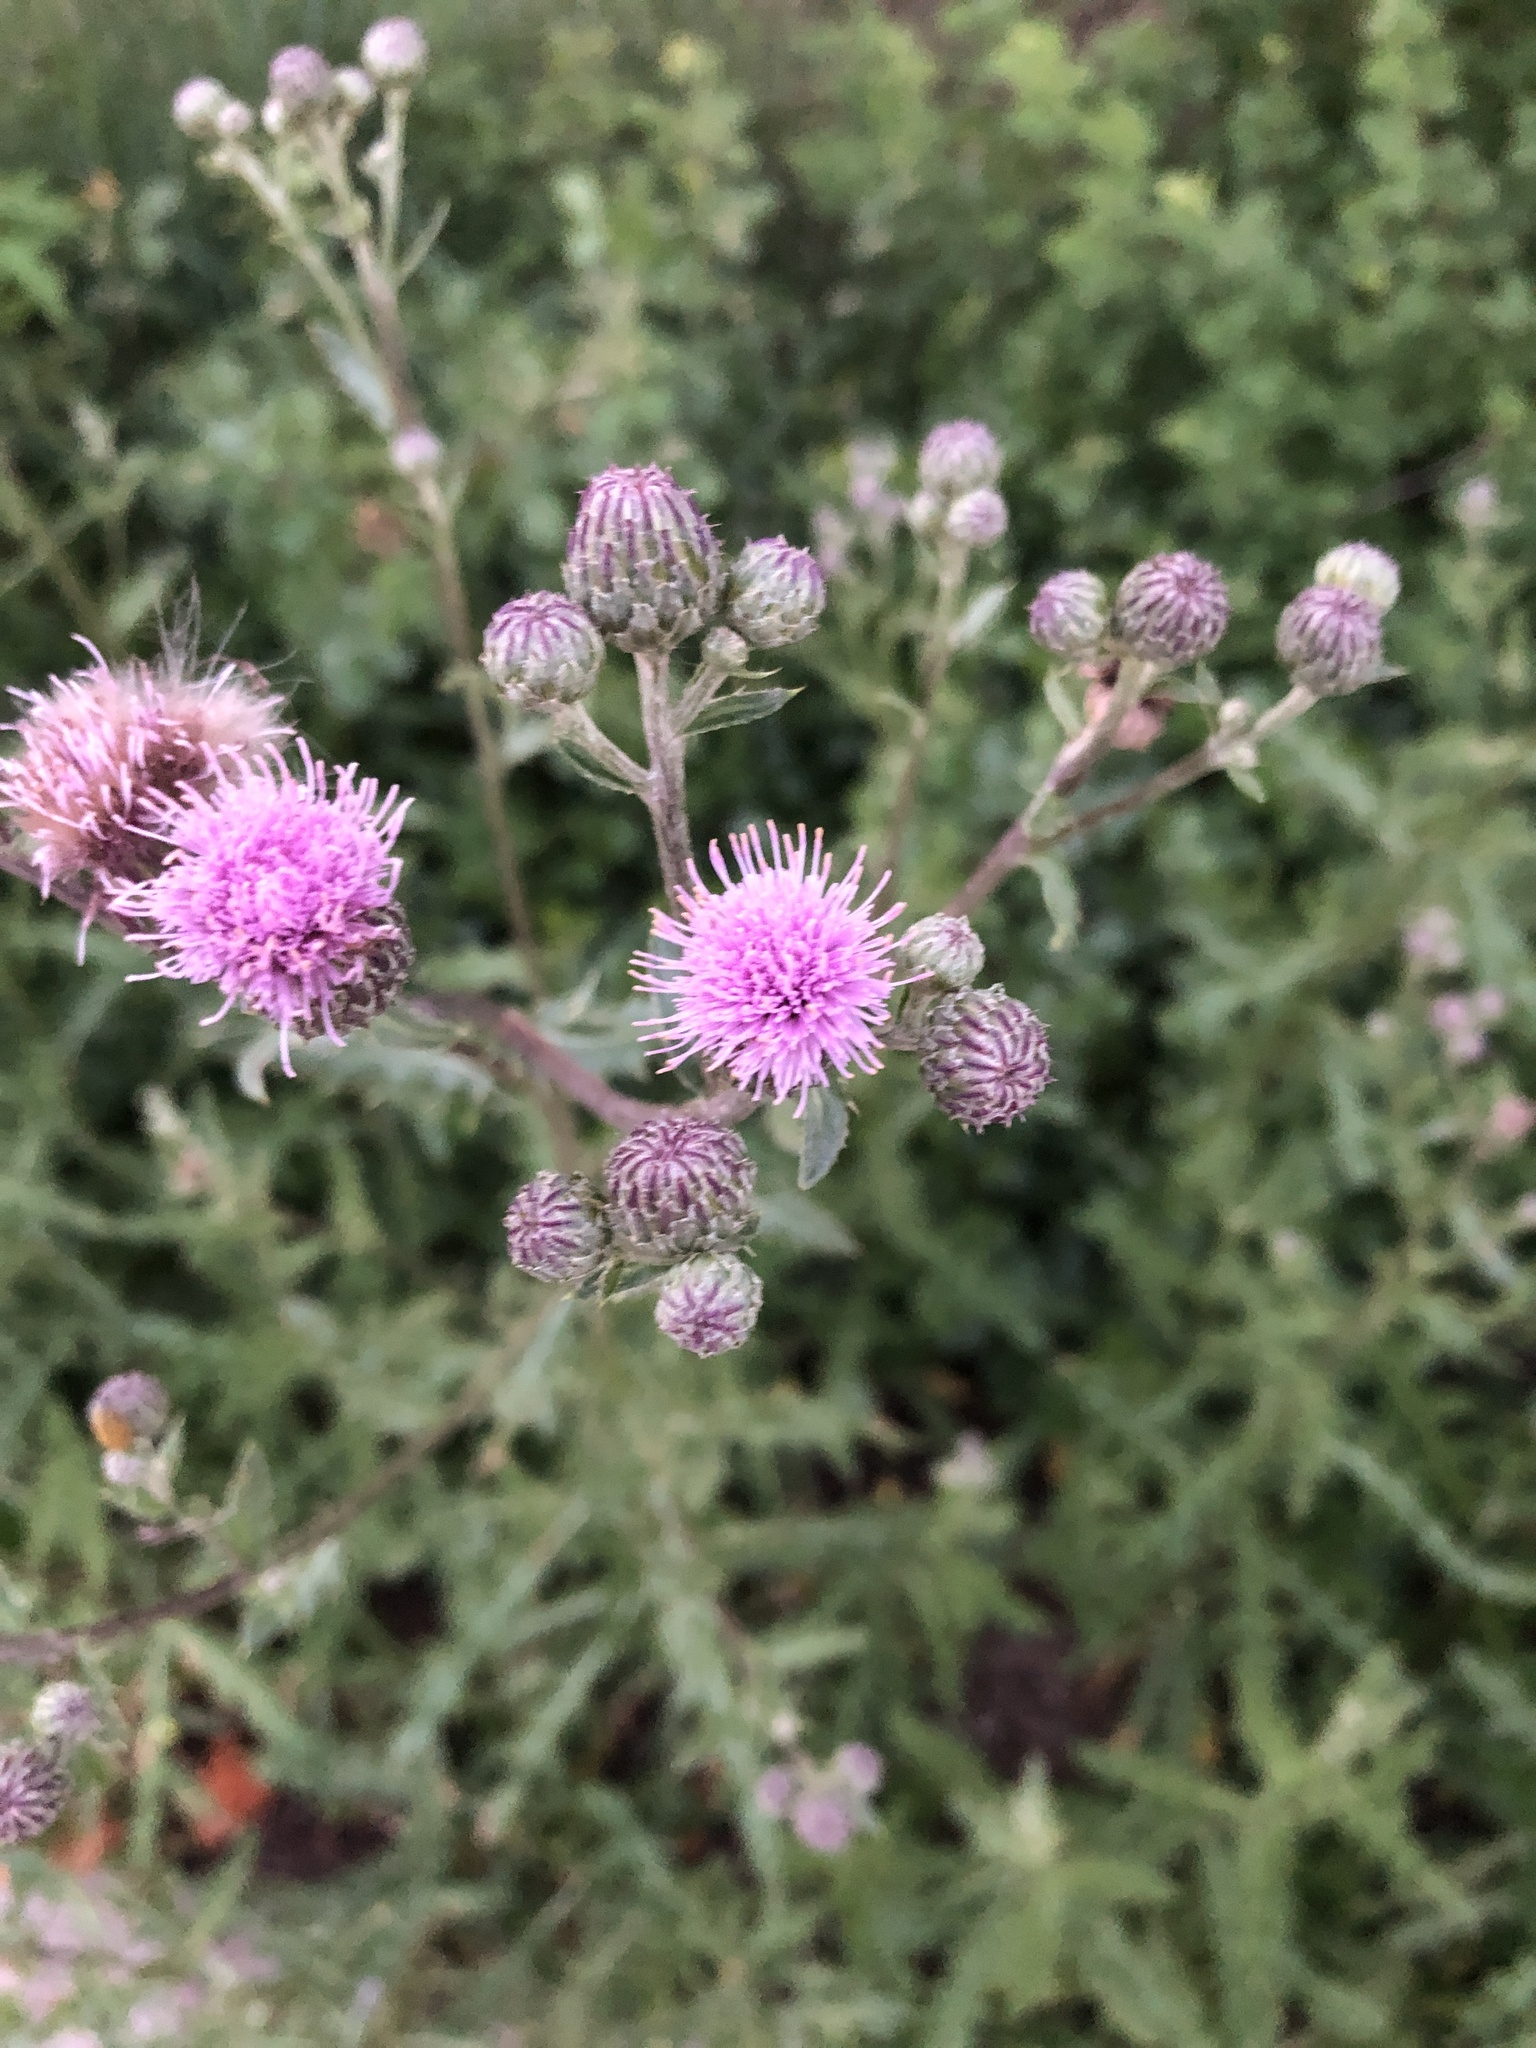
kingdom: Plantae
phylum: Tracheophyta
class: Magnoliopsida
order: Asterales
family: Asteraceae
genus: Cirsium
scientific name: Cirsium arvense
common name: Creeping thistle
